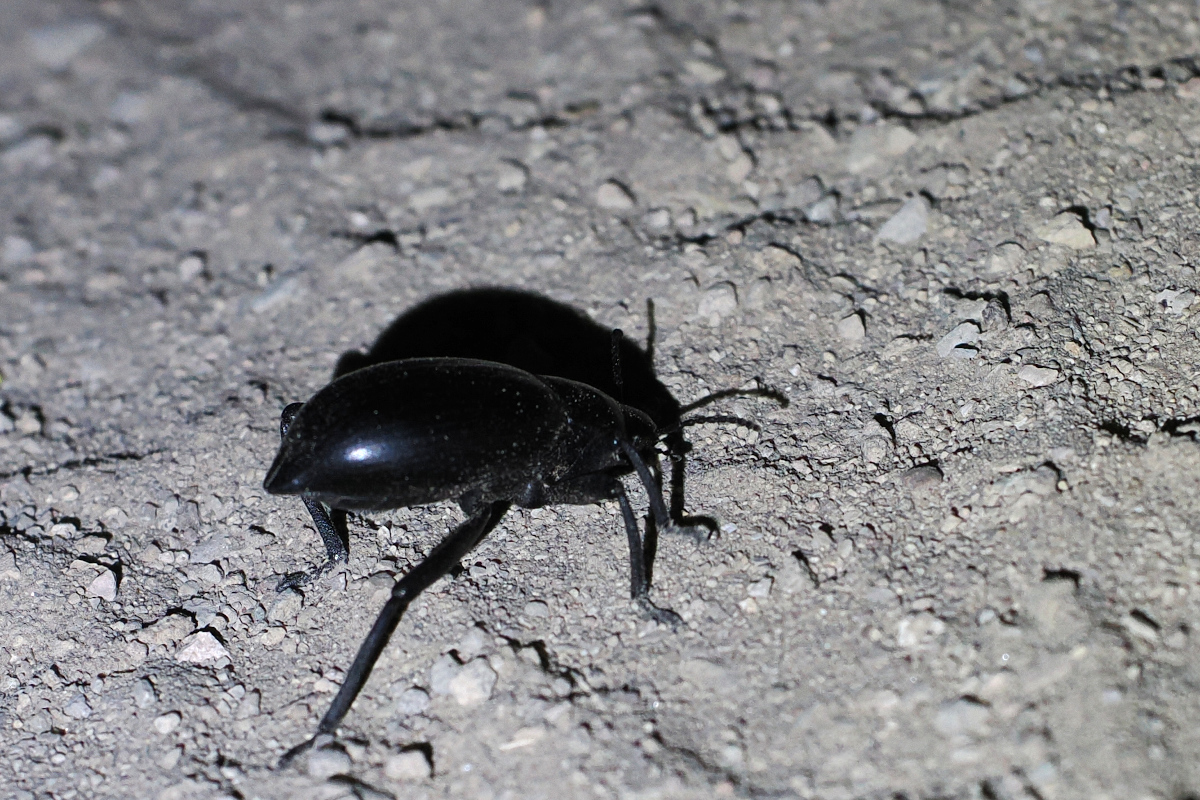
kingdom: Animalia
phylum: Arthropoda
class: Insecta
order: Coleoptera
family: Tenebrionidae
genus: Eleodes
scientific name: Eleodes mexicana
